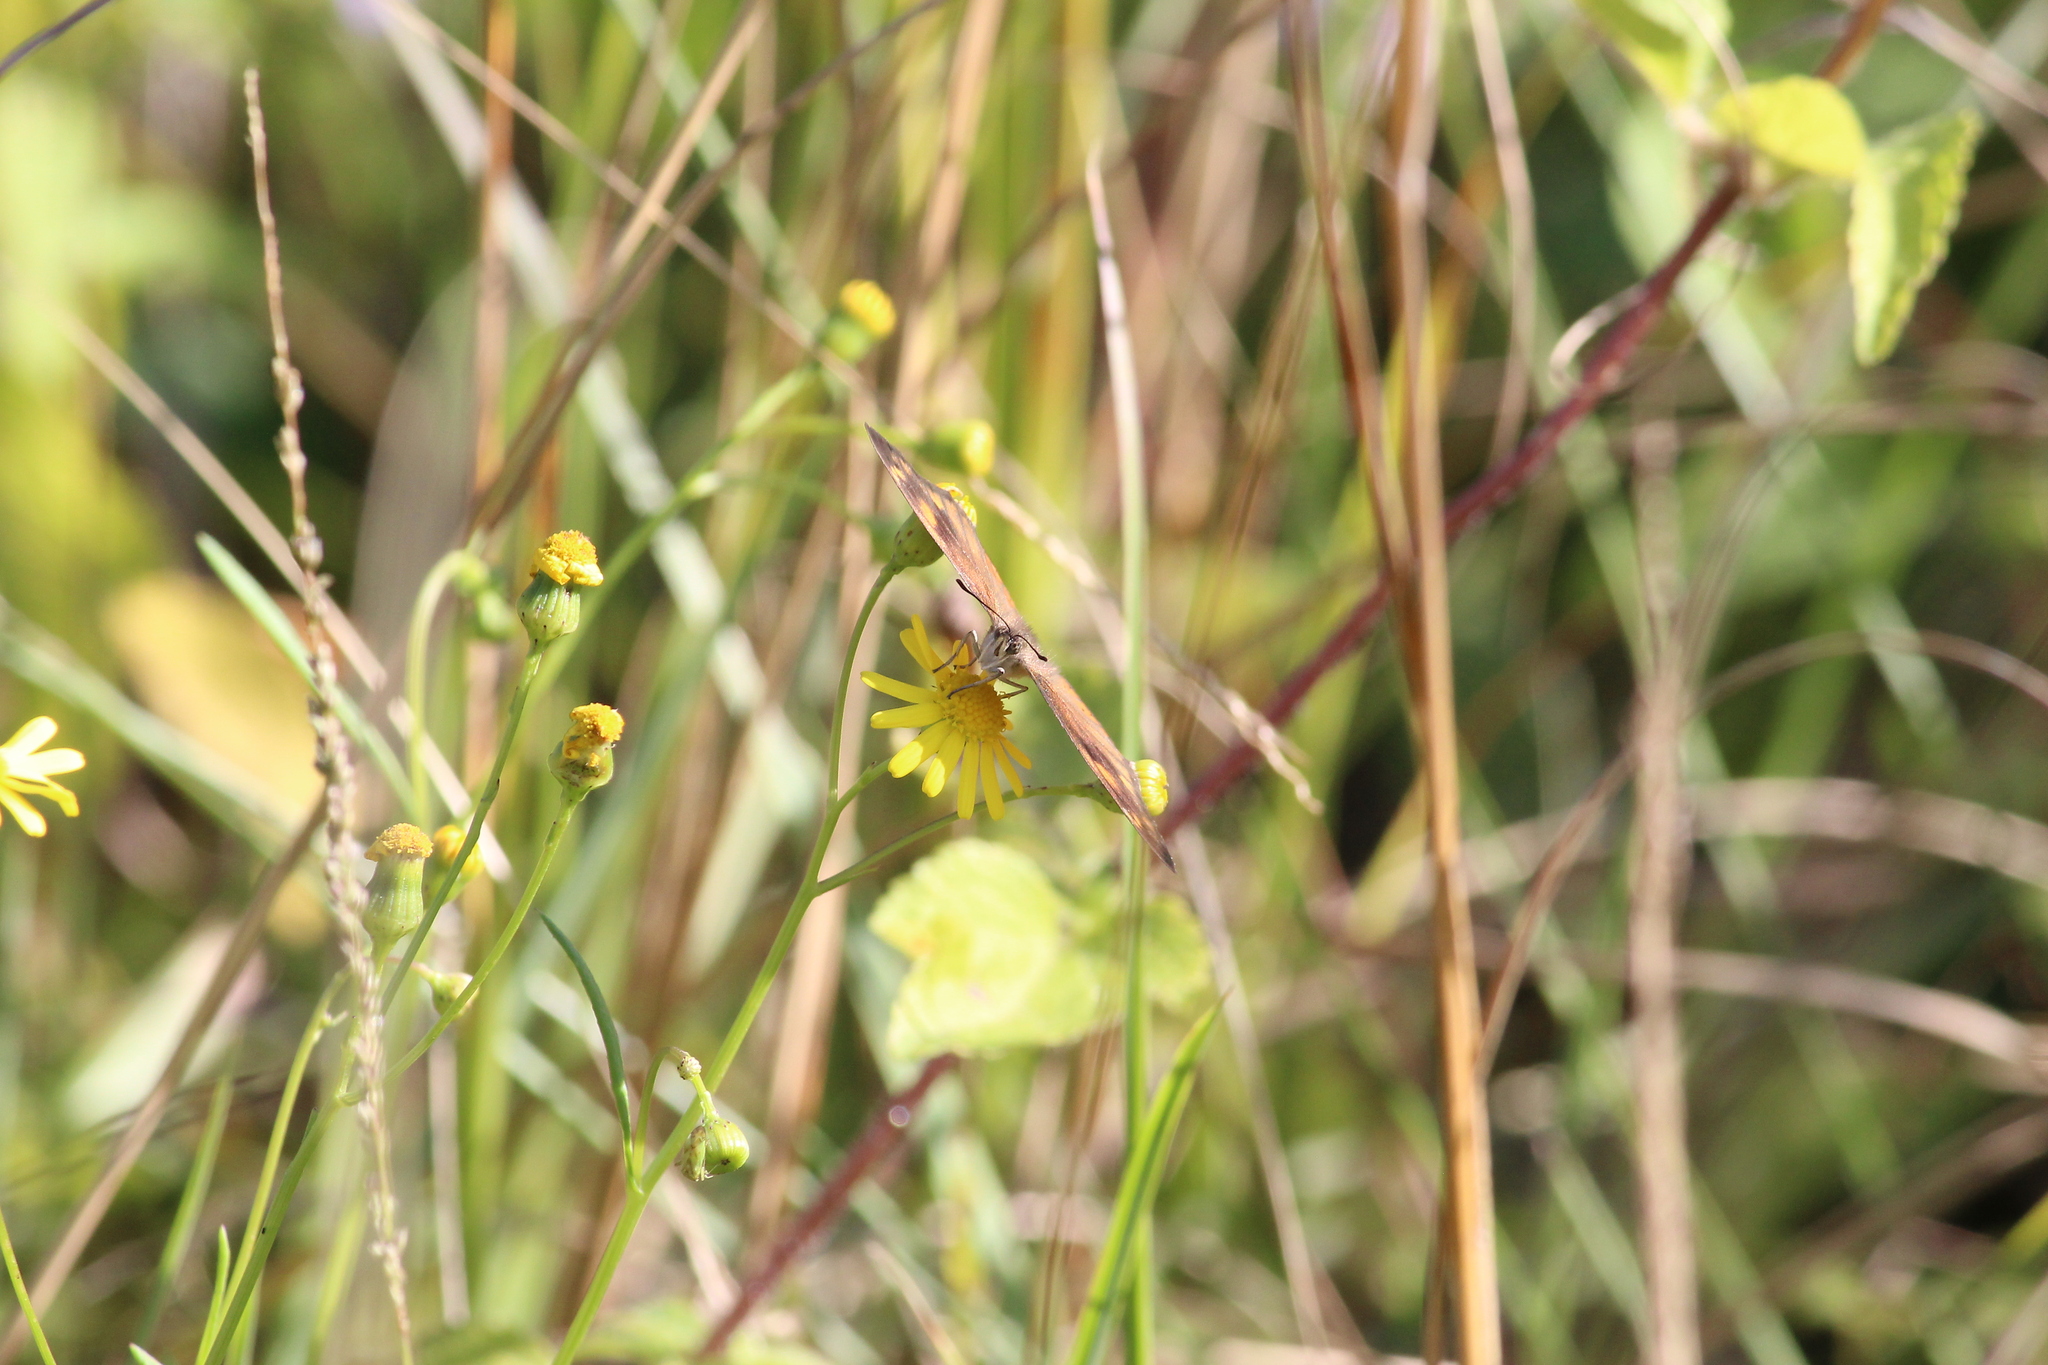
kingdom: Animalia
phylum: Arthropoda
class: Insecta
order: Lepidoptera
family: Nymphalidae
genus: Sallya
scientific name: Sallya natalensis
